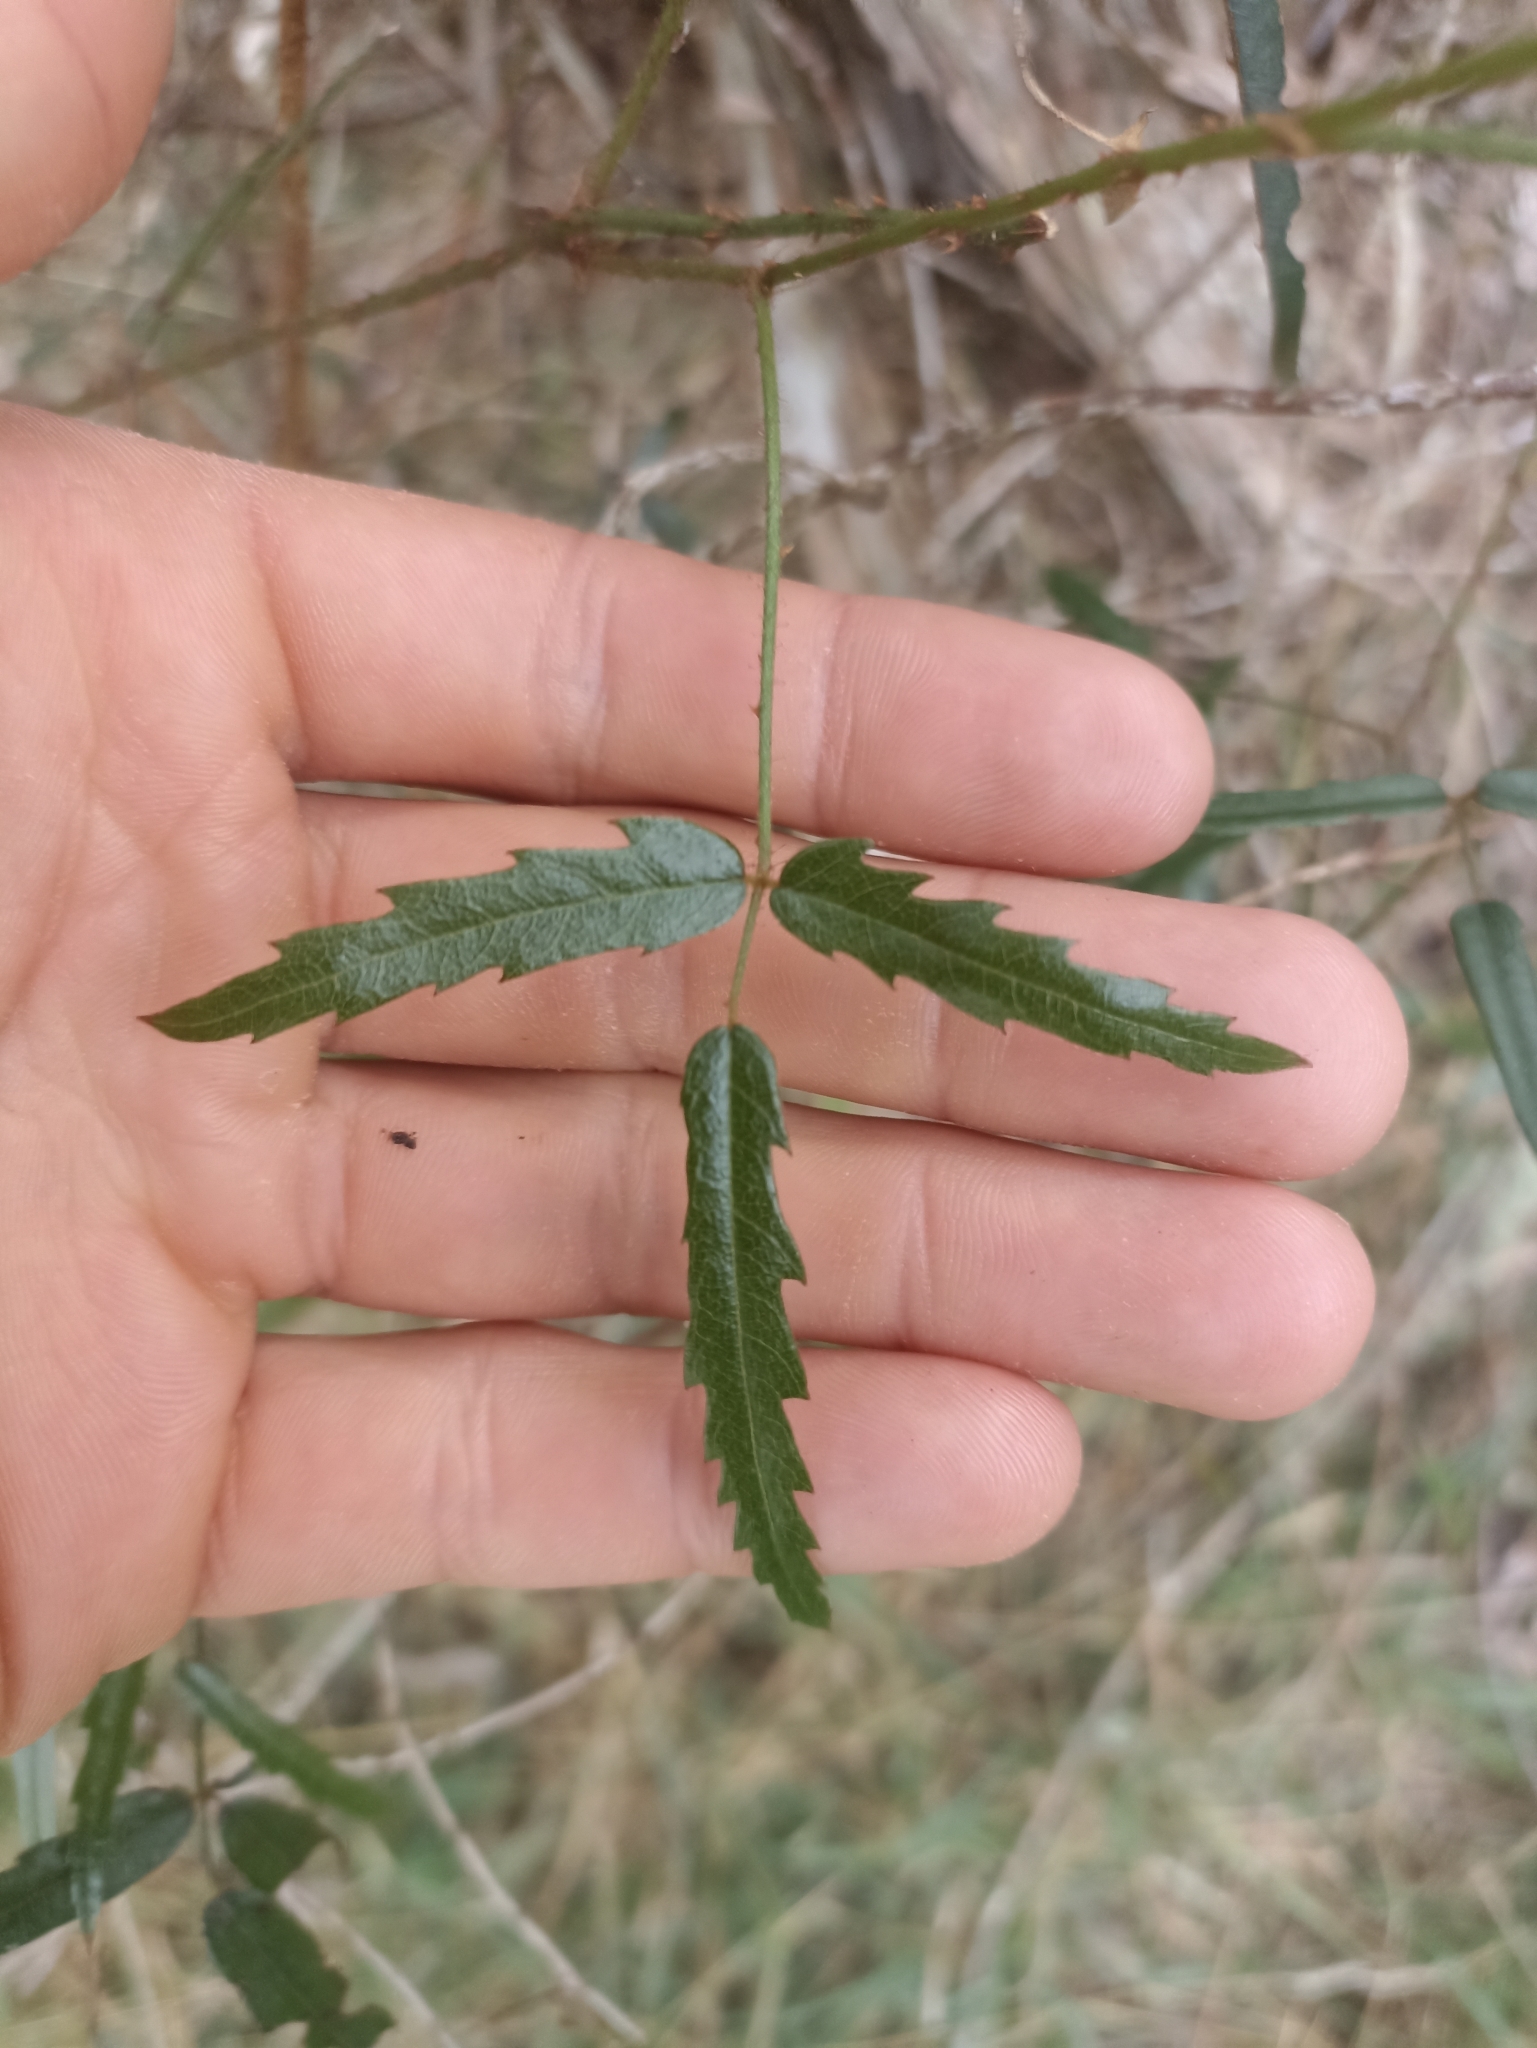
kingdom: Plantae
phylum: Tracheophyta
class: Magnoliopsida
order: Rosales
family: Rosaceae
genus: Rubus
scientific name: Rubus schmidelioides
